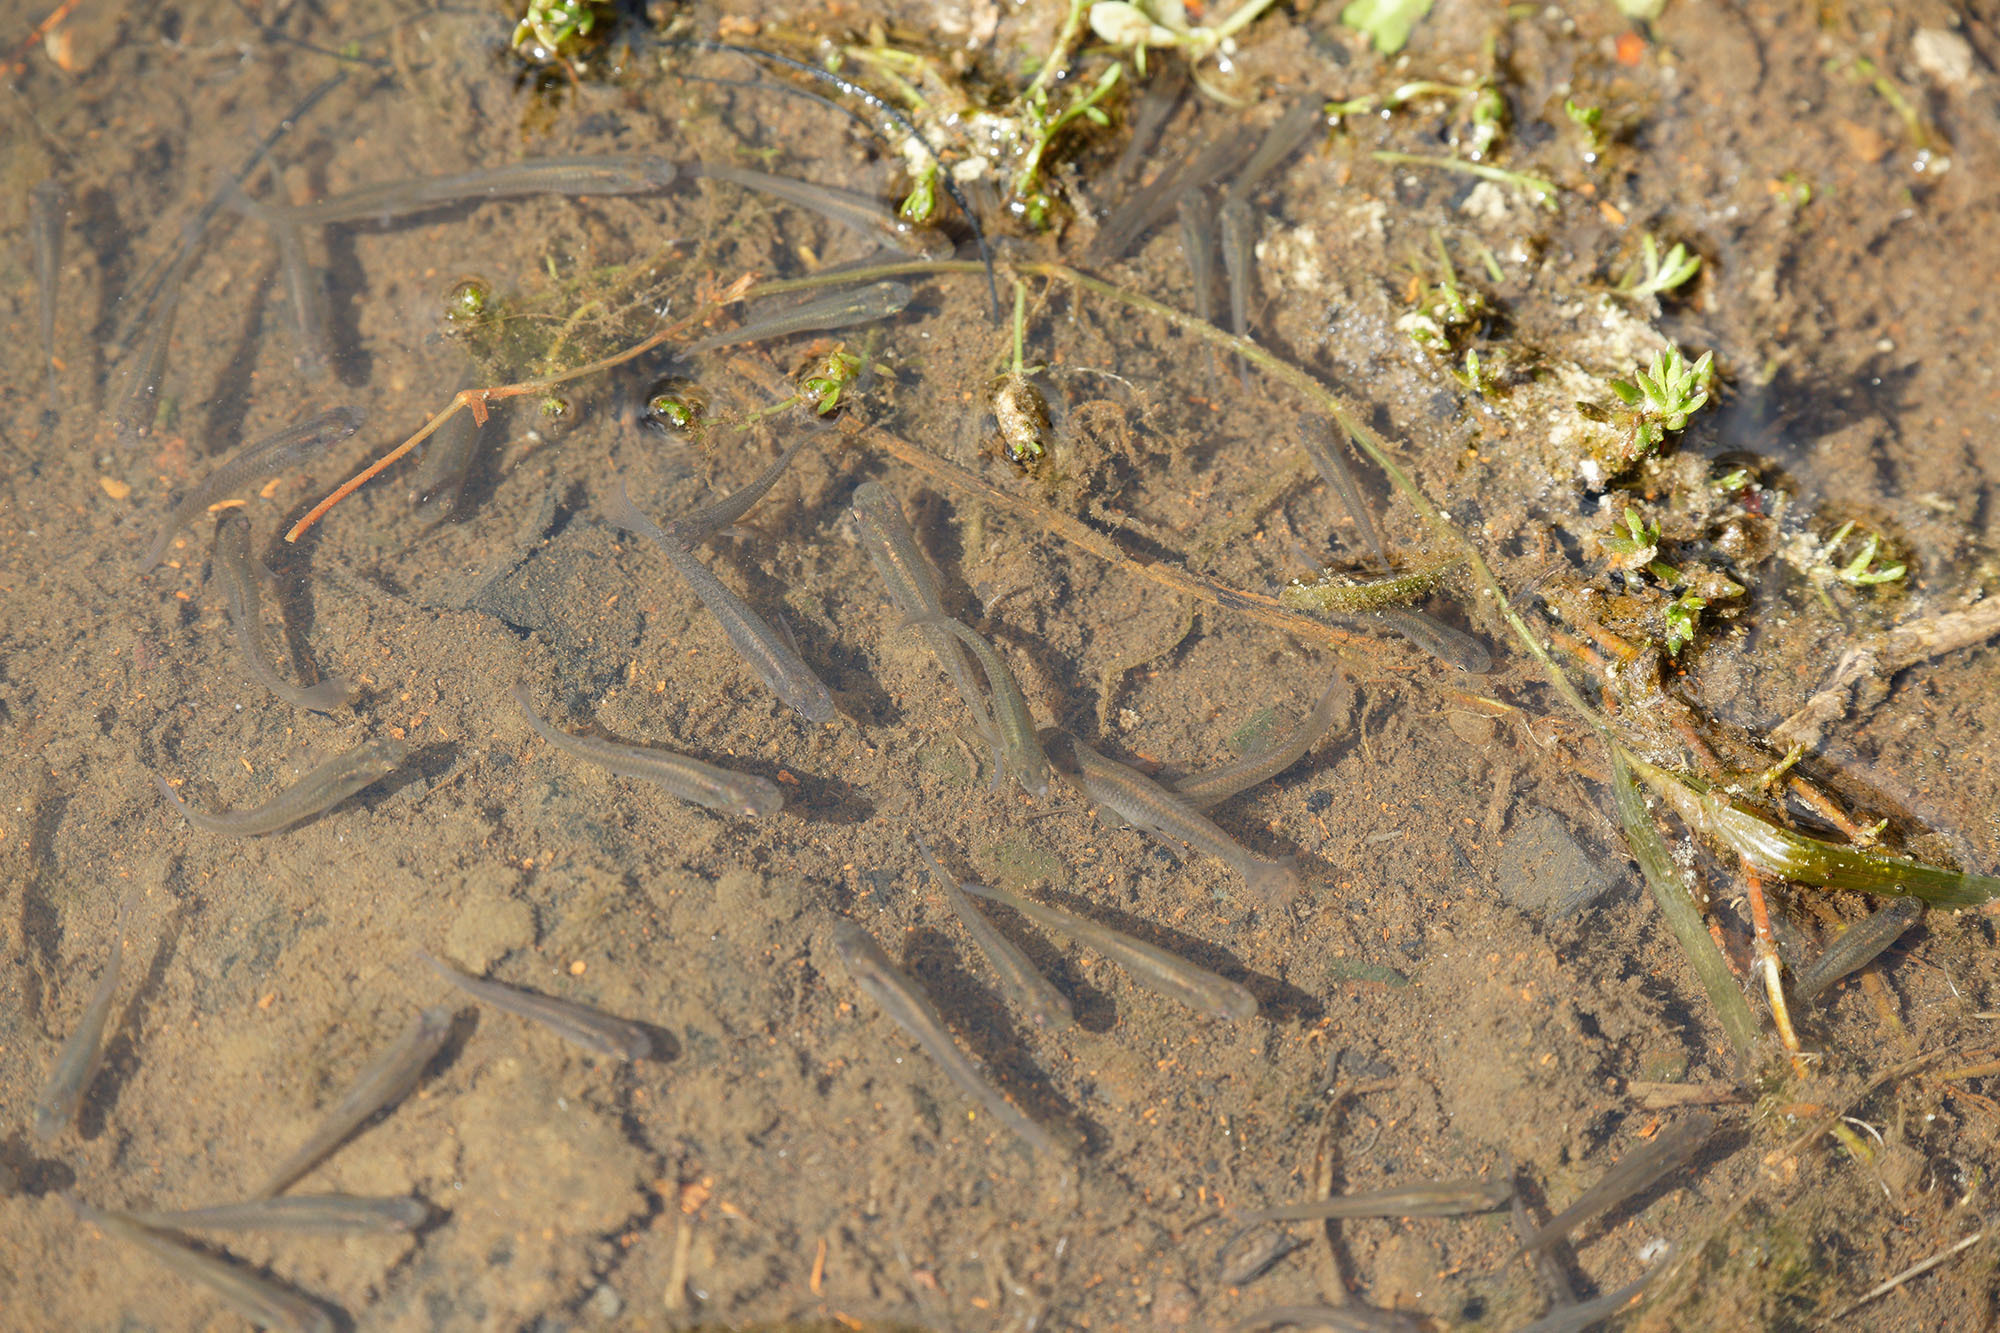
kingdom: Animalia
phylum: Chordata
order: Cyprinodontiformes
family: Poeciliidae
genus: Gambusia
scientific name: Gambusia affinis
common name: Mosquitofish
